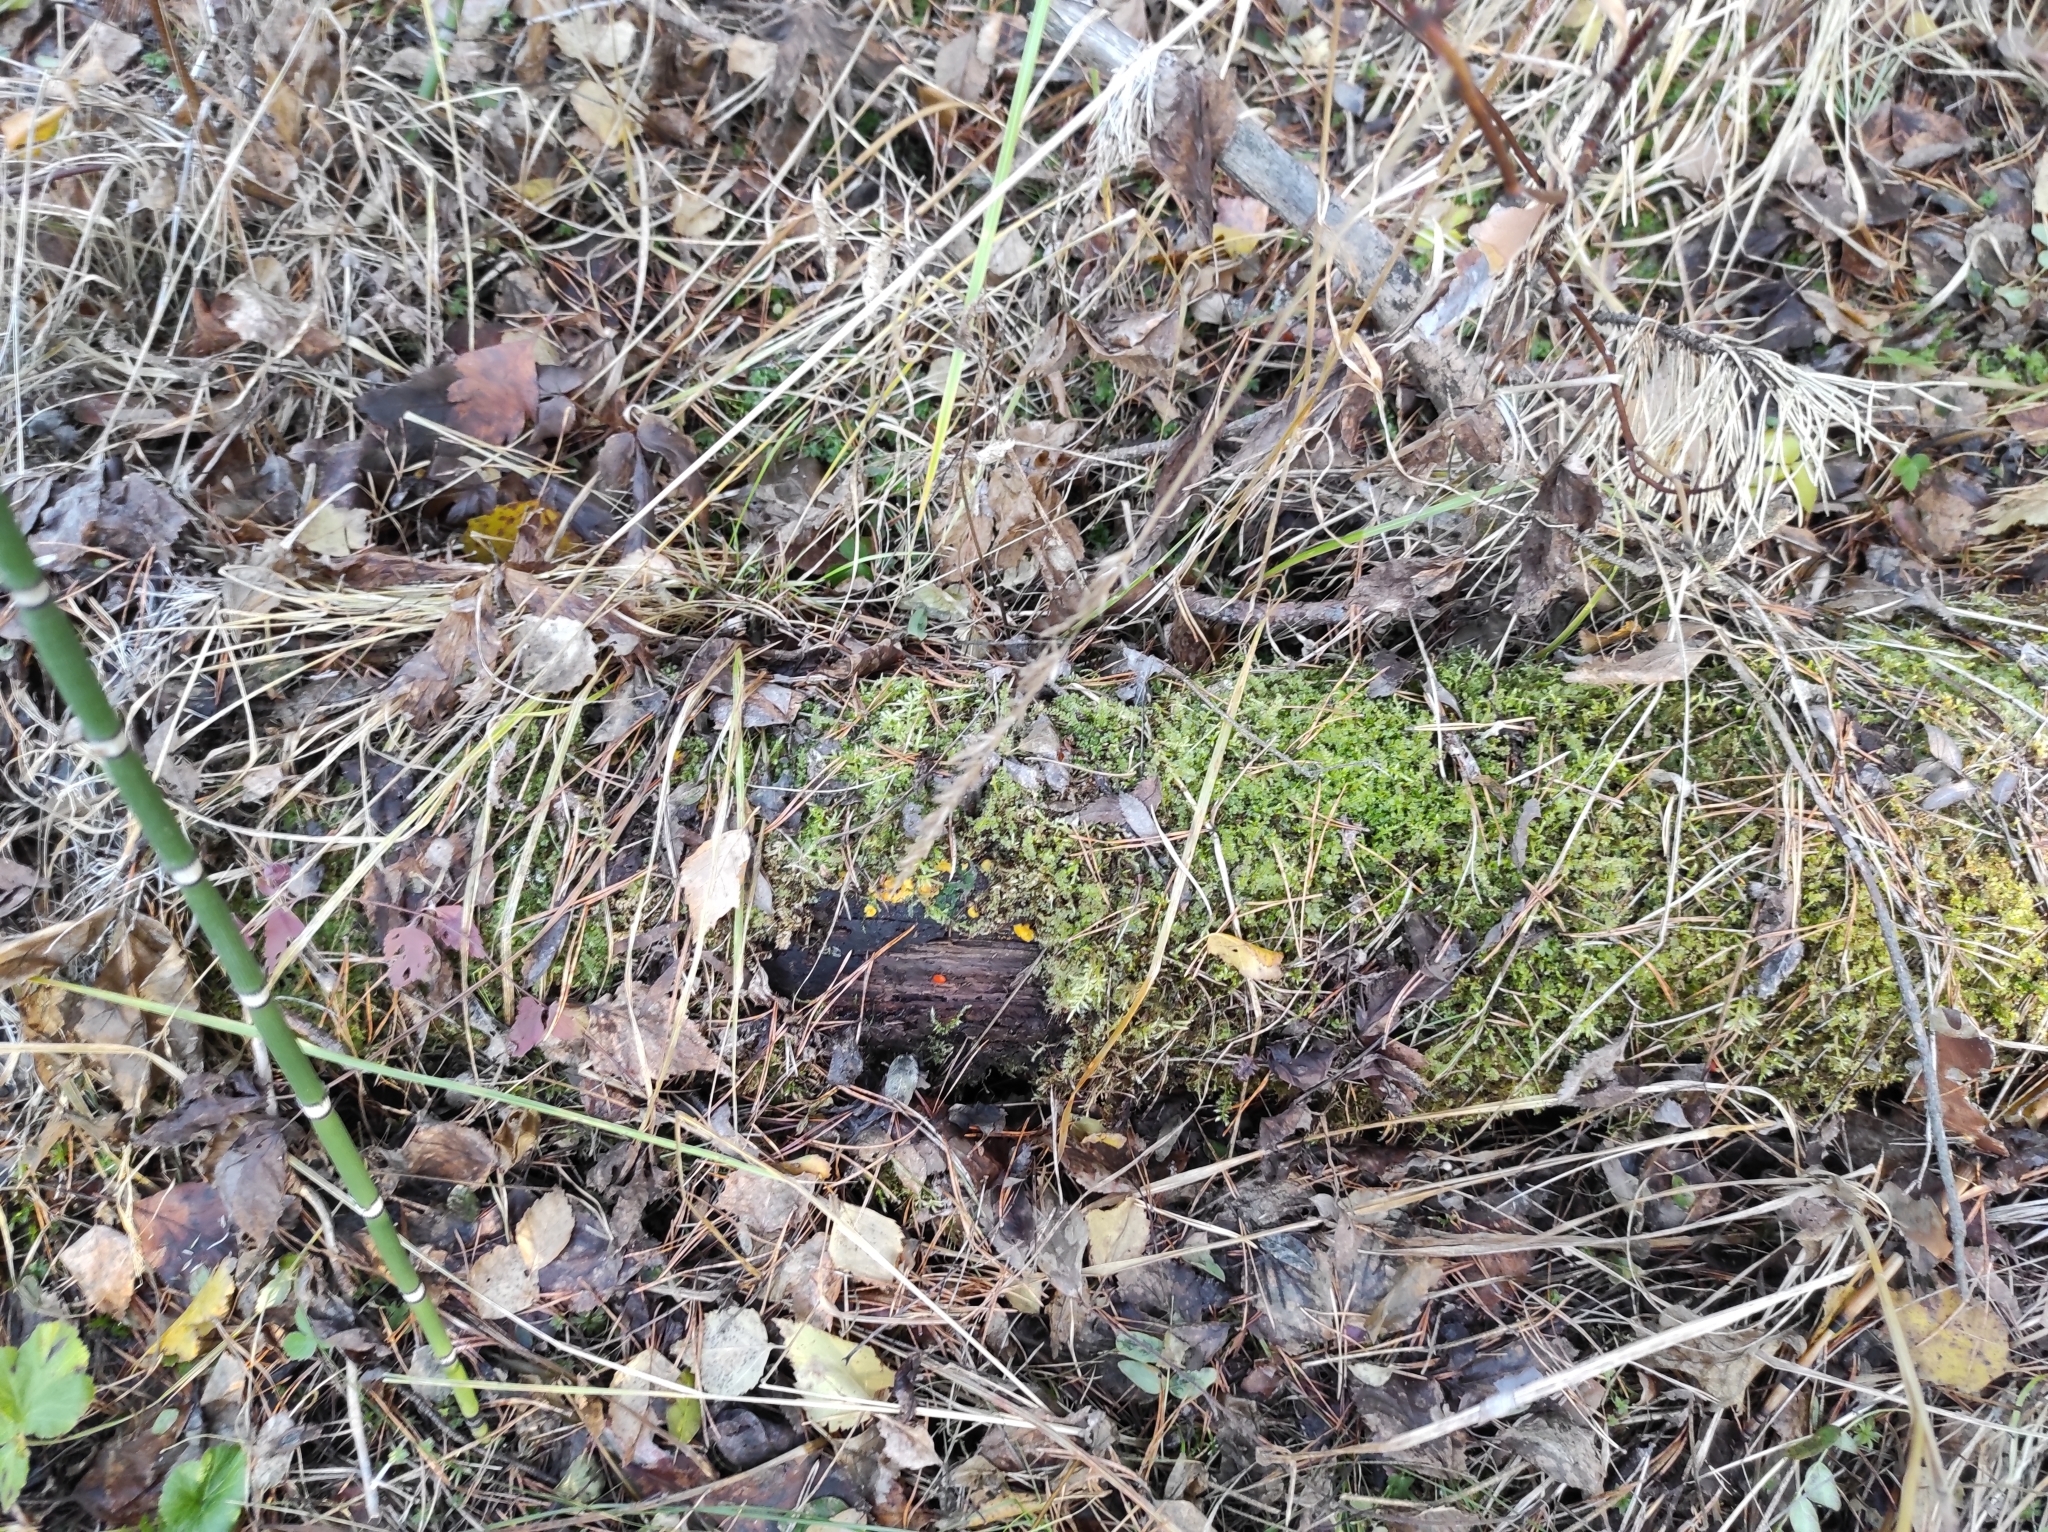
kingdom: Fungi
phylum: Ascomycota
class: Leotiomycetes
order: Helotiales
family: Pezizellaceae
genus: Calycina
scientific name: Calycina citrina
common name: Yellow fairy cups
